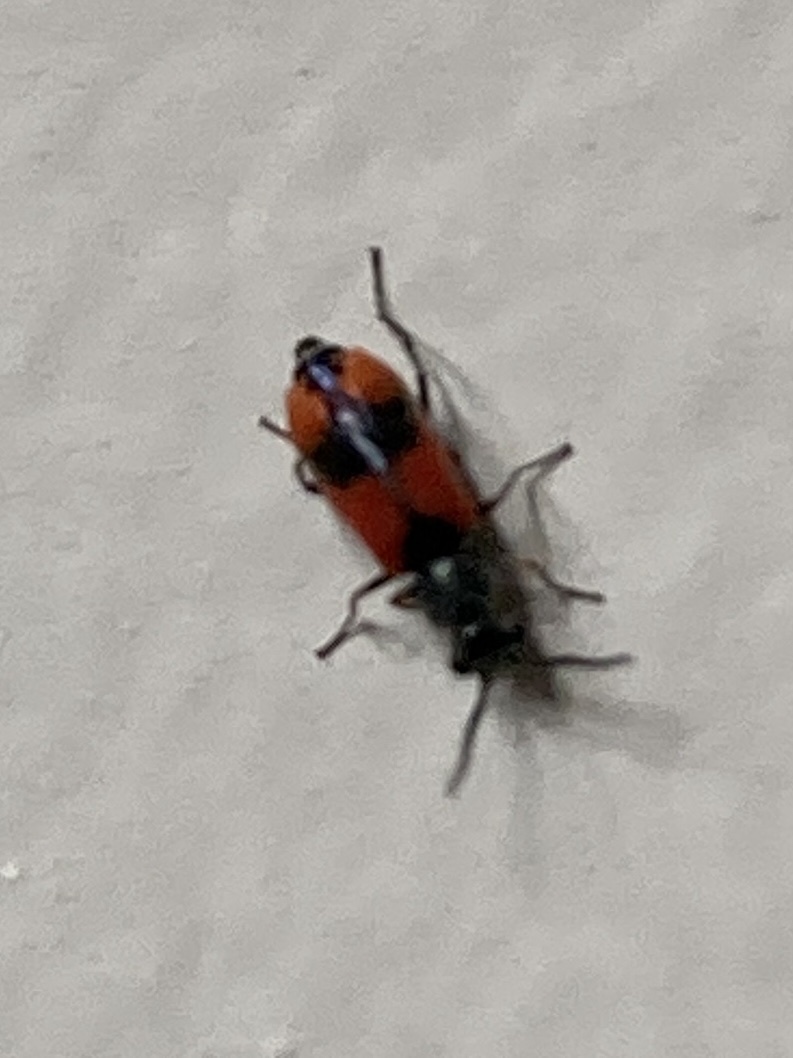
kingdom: Animalia
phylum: Arthropoda
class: Insecta
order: Coleoptera
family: Melyridae
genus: Anthocomus
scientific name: Anthocomus equestris
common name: Black-banded soft-winged flower beetle
